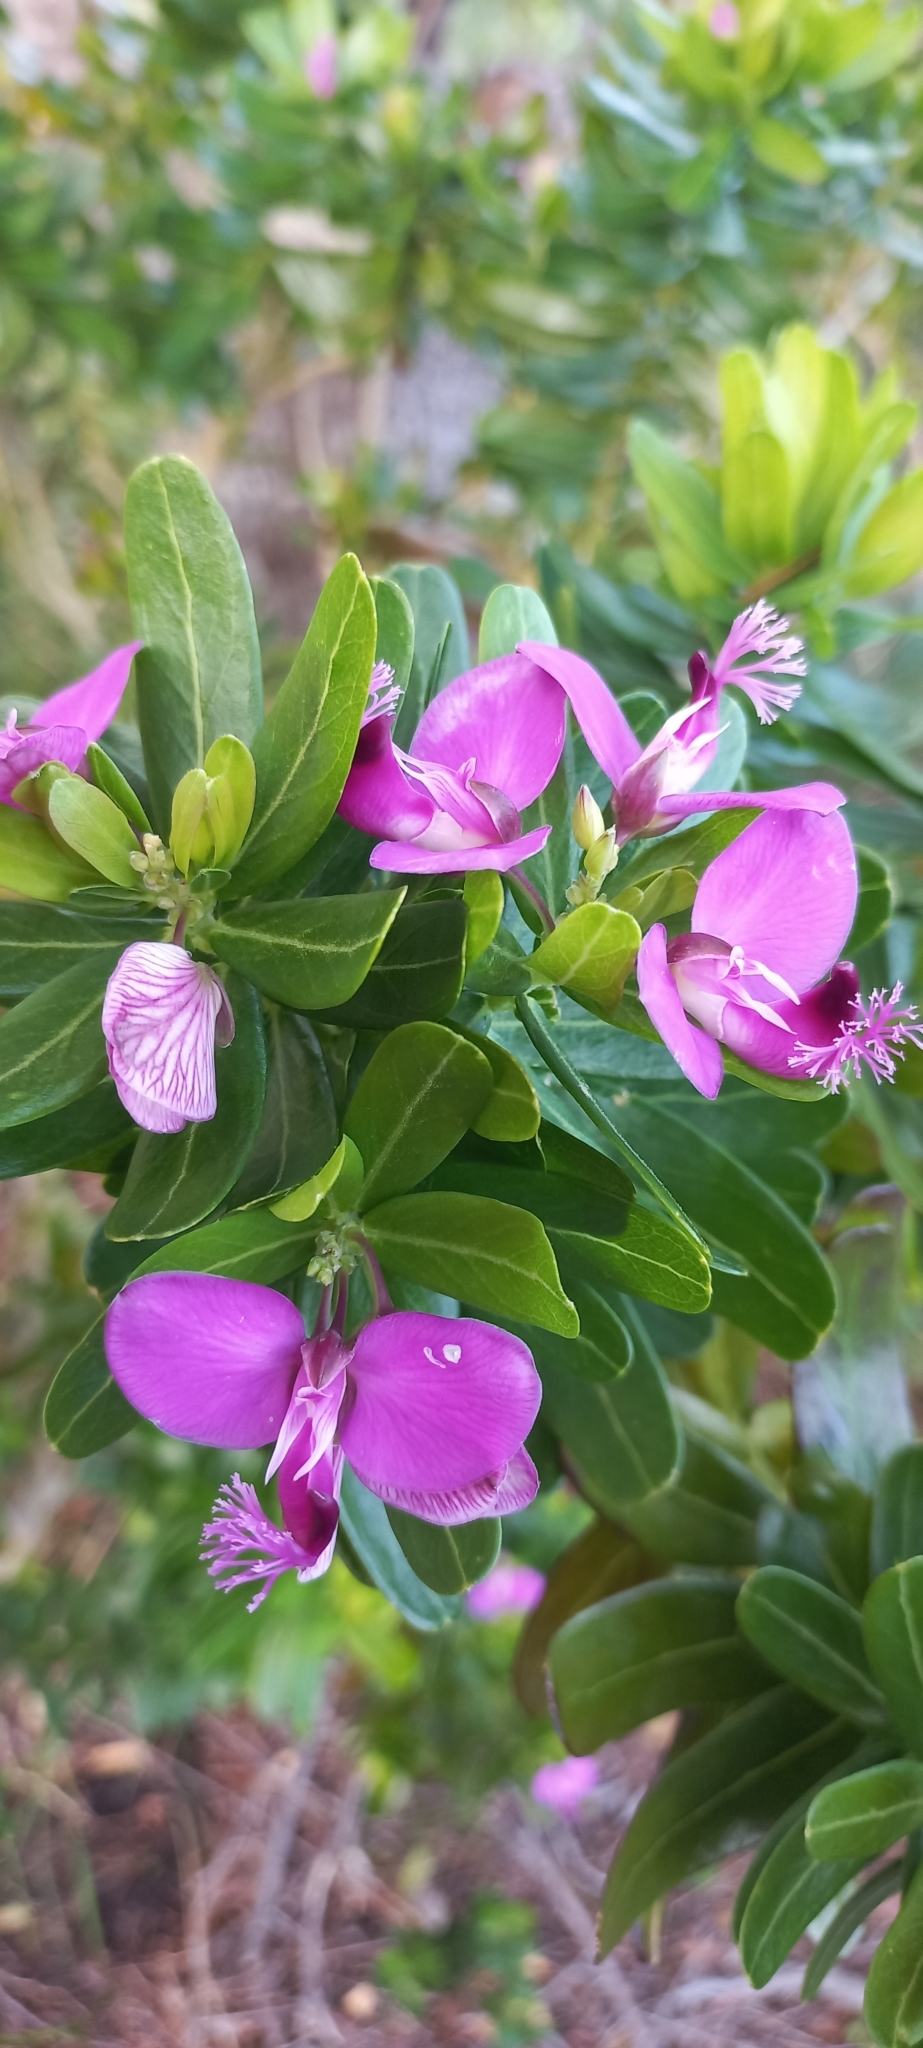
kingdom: Plantae
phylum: Tracheophyta
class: Magnoliopsida
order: Fabales
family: Polygalaceae
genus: Polygala
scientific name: Polygala myrtifolia
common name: Myrtle-leaf milkwort
